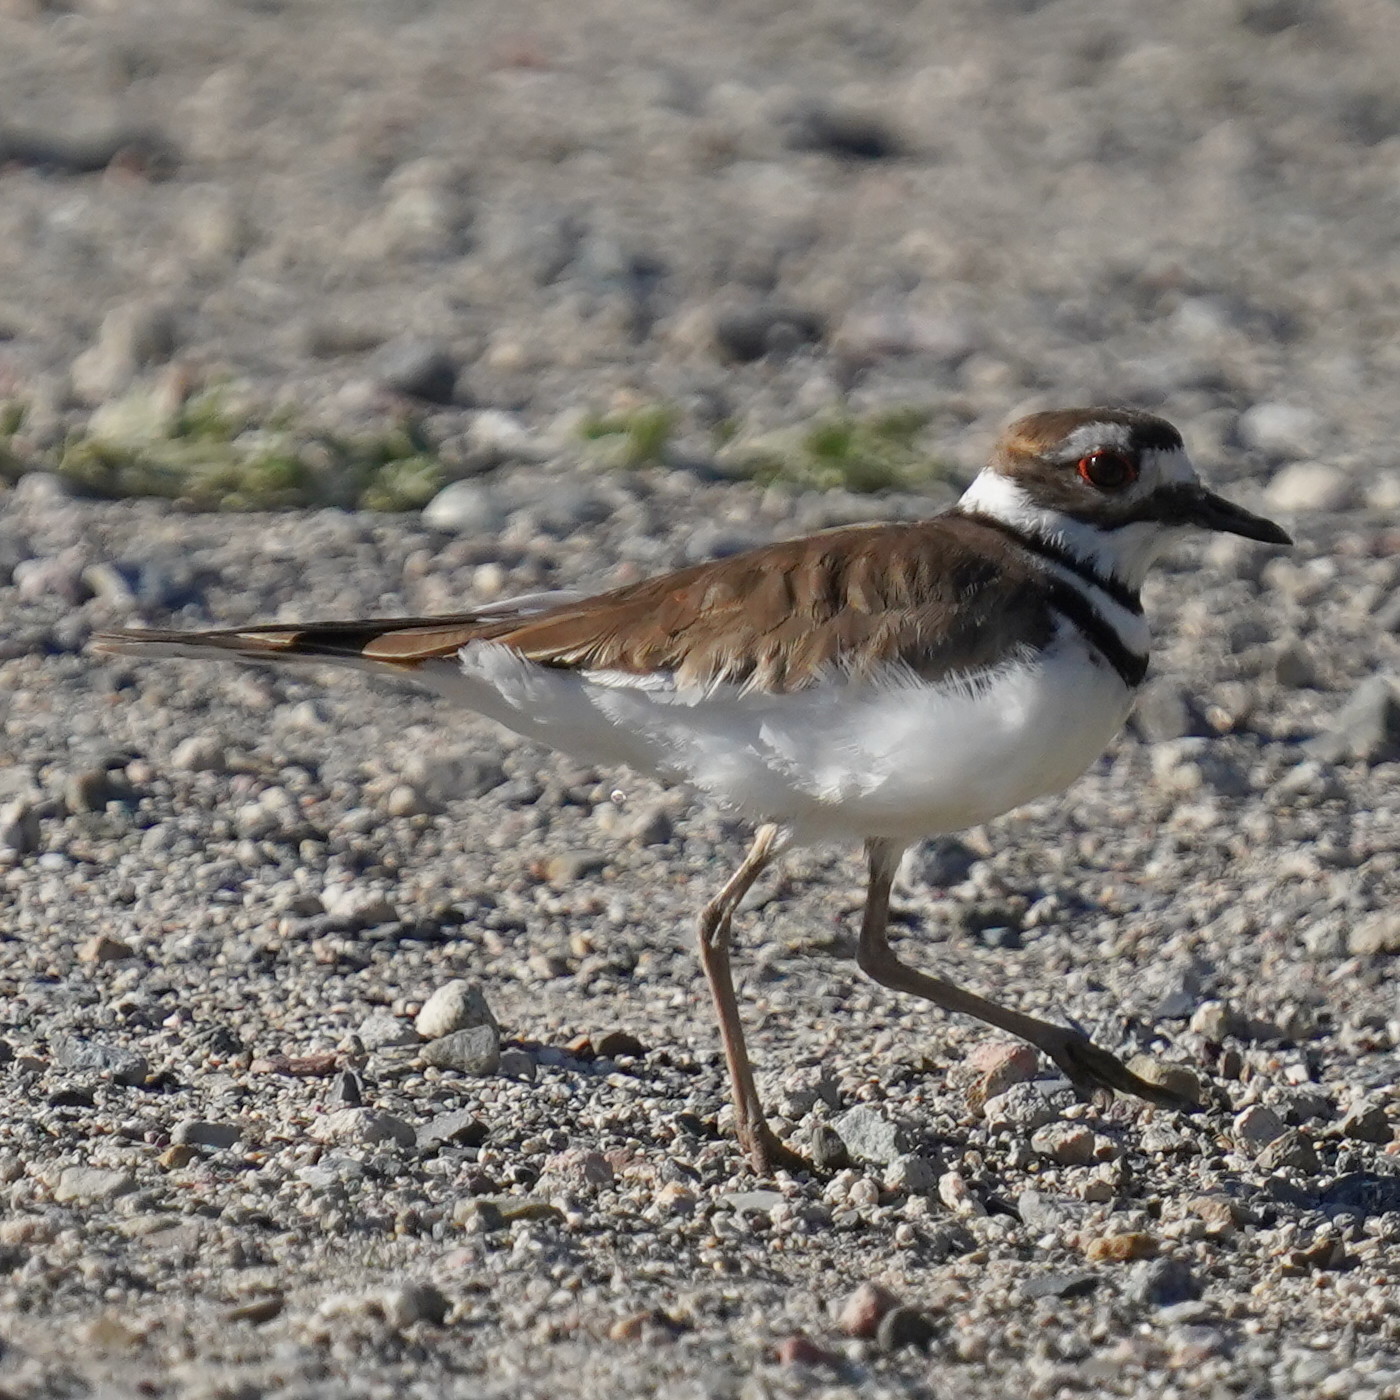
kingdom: Animalia
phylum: Chordata
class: Aves
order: Charadriiformes
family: Charadriidae
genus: Charadrius
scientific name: Charadrius vociferus
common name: Killdeer
